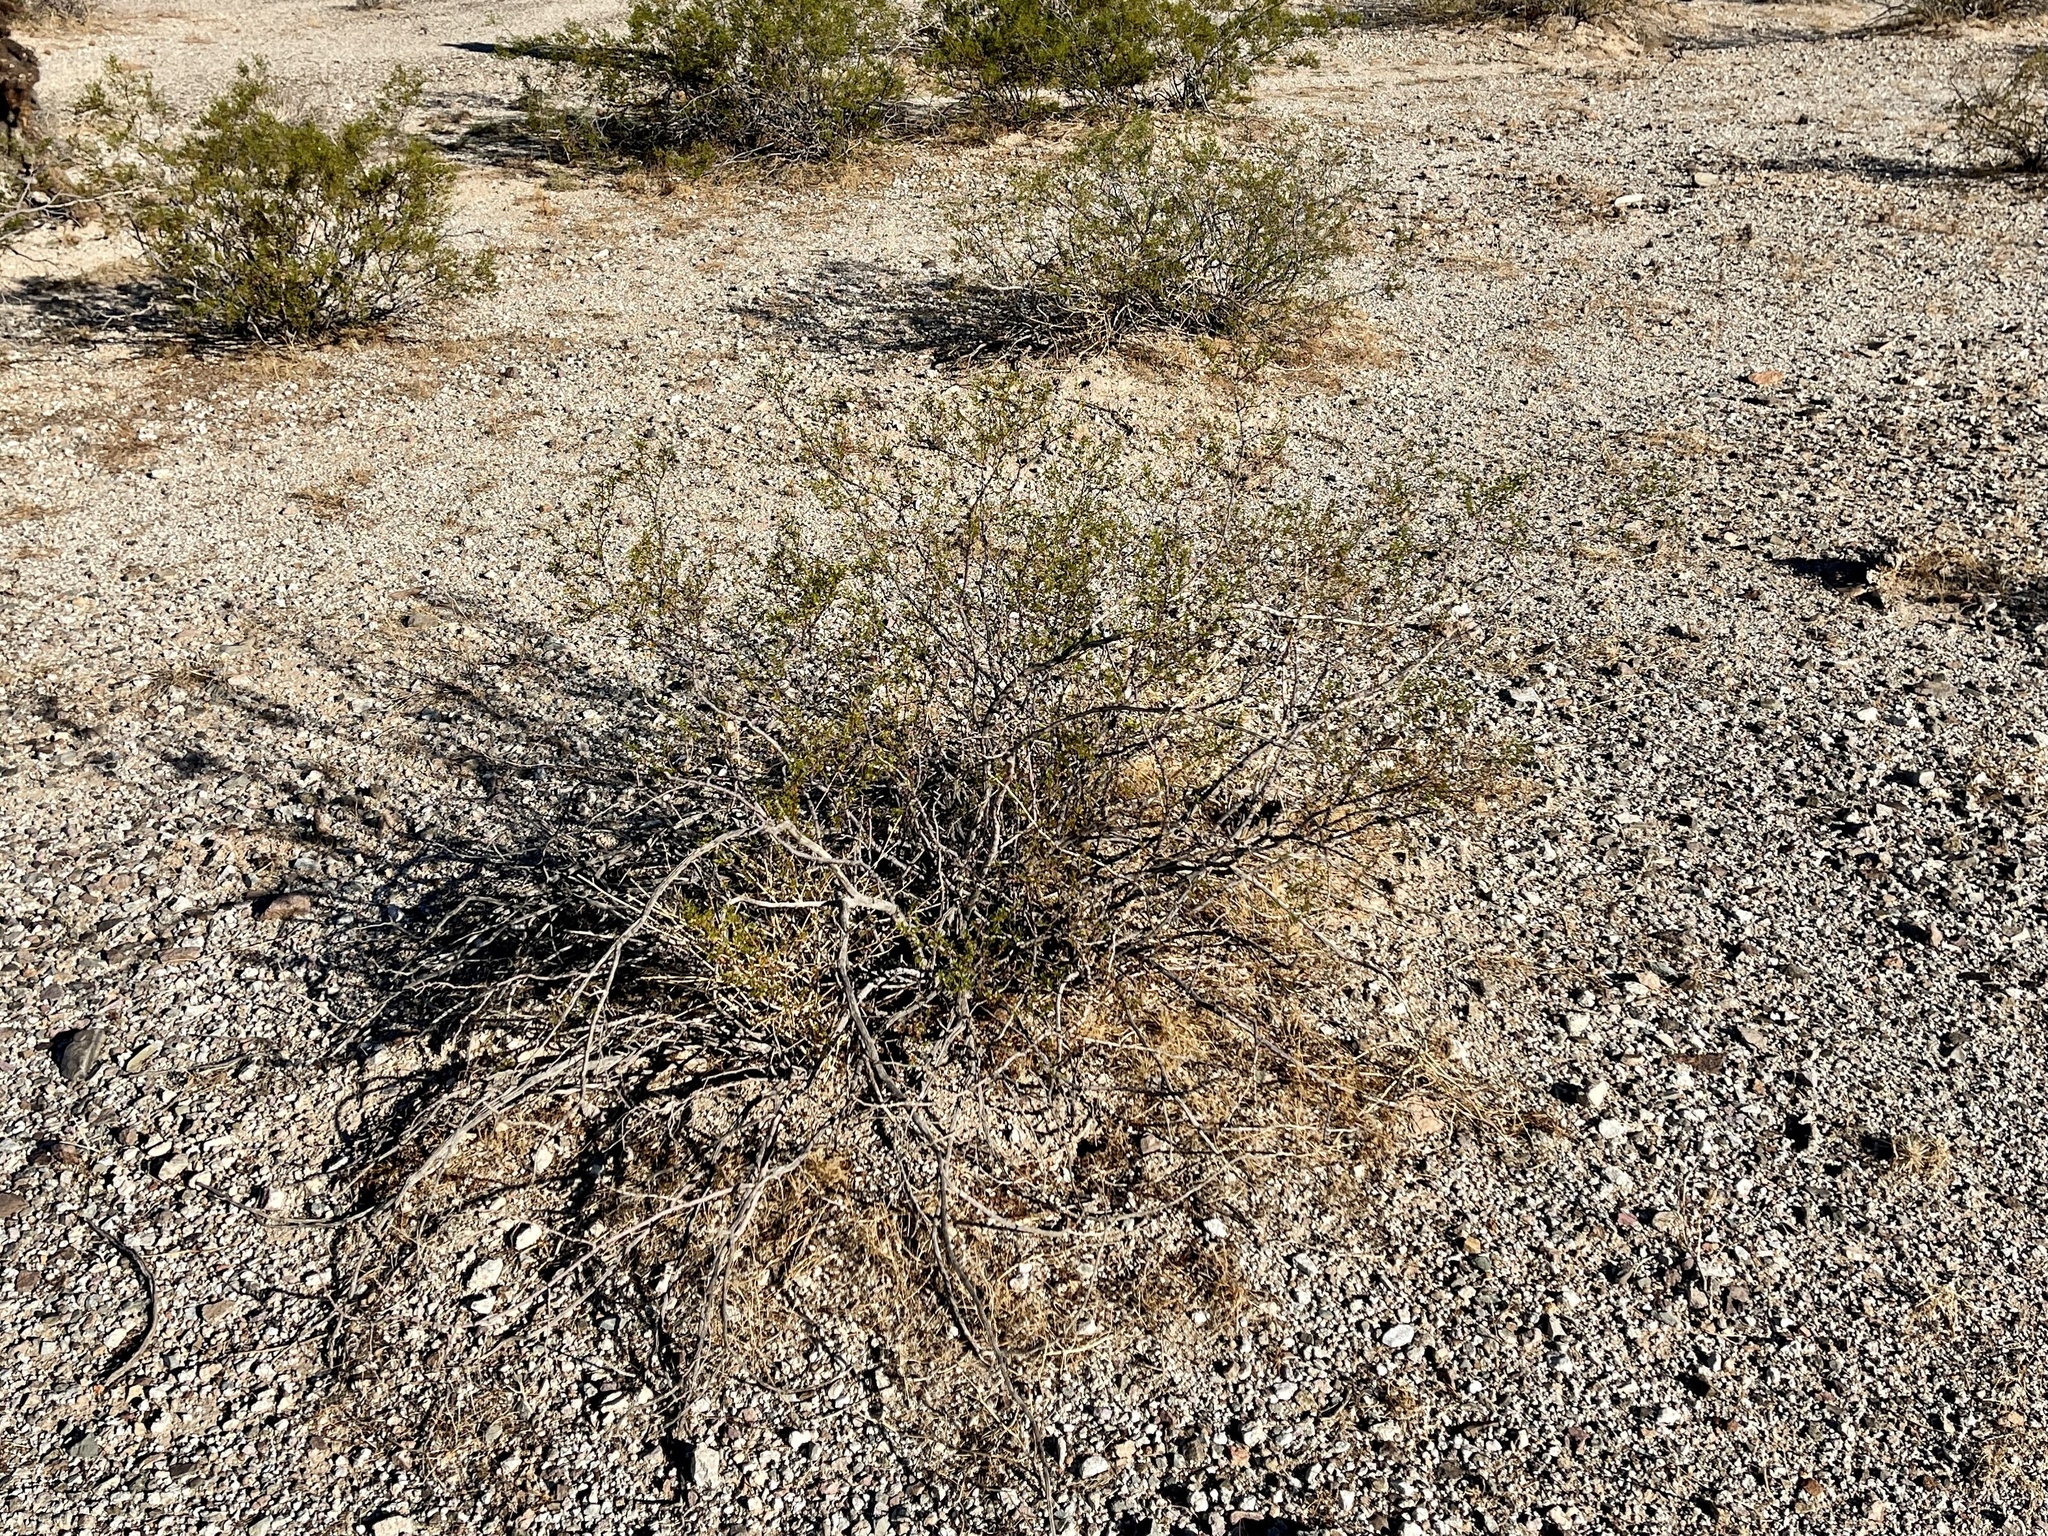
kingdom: Plantae
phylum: Tracheophyta
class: Magnoliopsida
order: Zygophyllales
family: Zygophyllaceae
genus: Larrea
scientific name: Larrea tridentata
